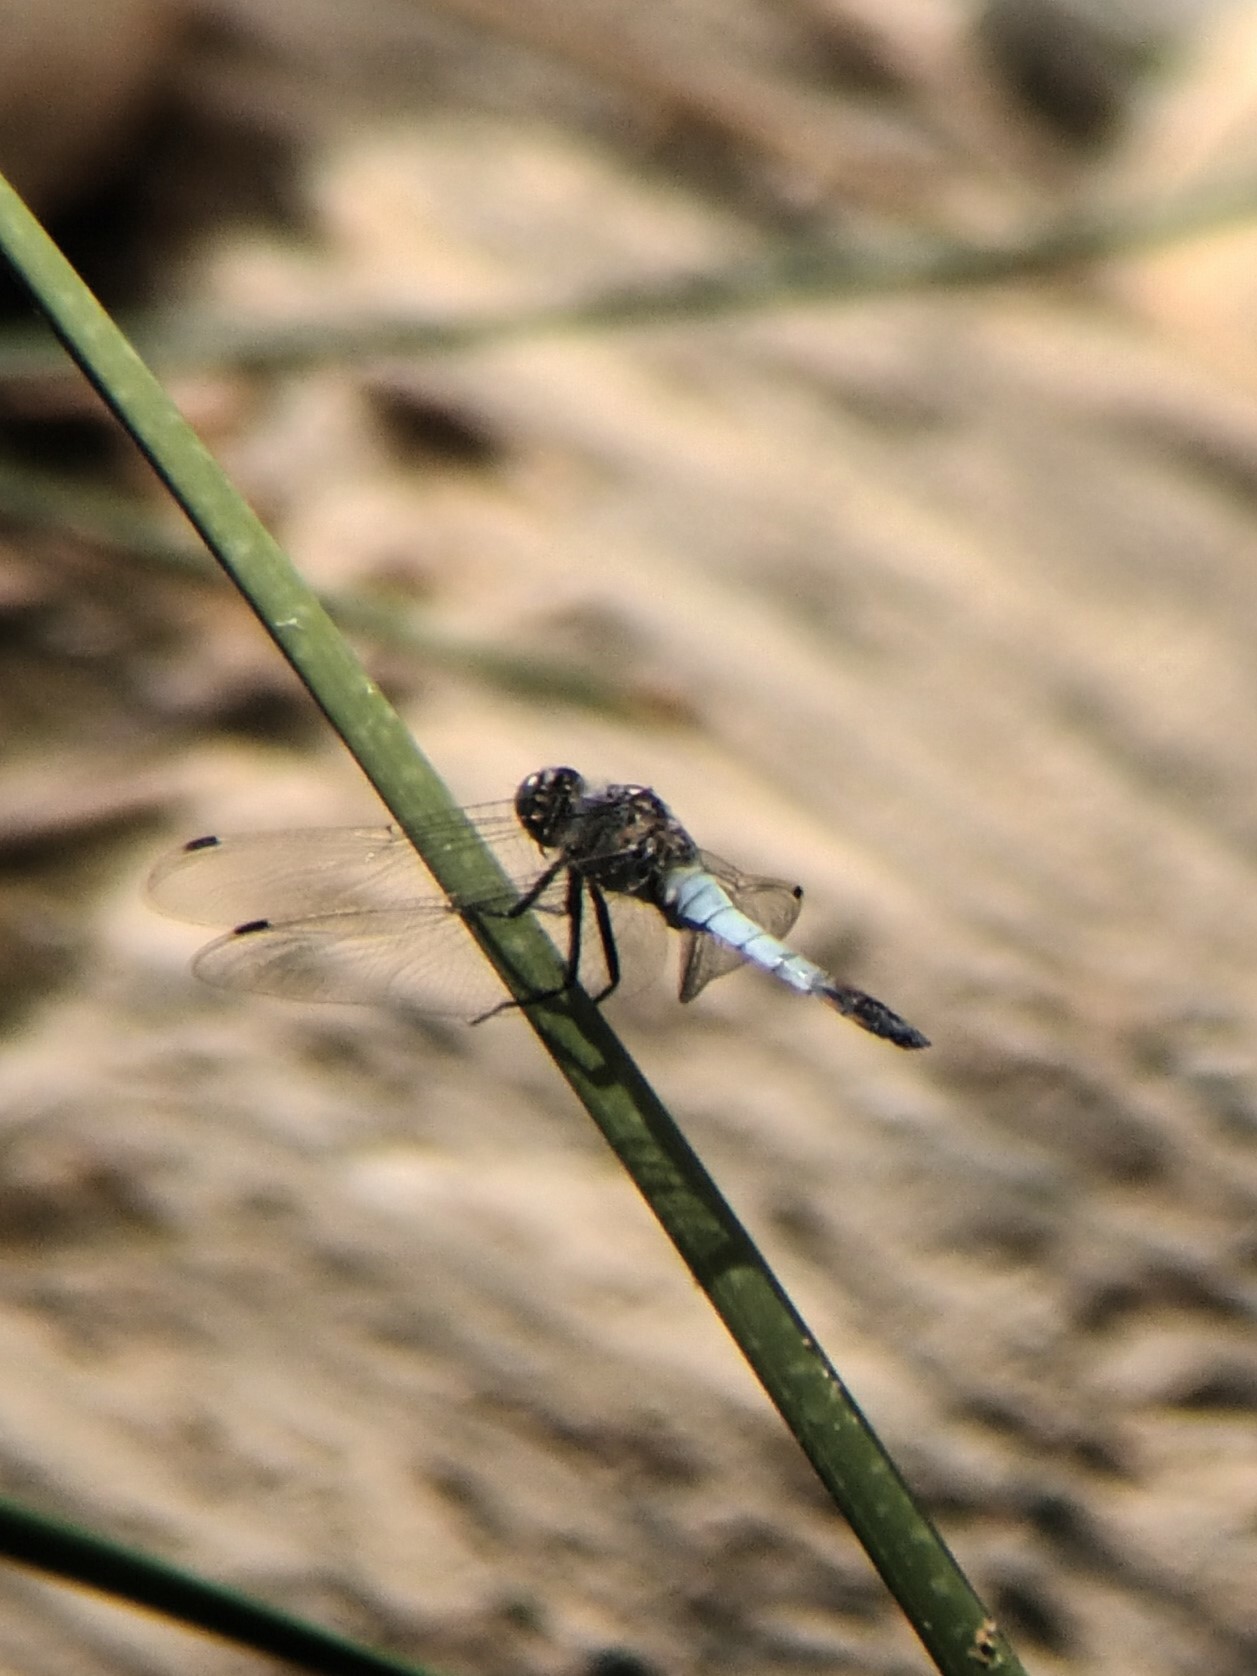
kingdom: Animalia
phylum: Arthropoda
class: Insecta
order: Odonata
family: Libellulidae
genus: Orthetrum
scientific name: Orthetrum cancellatum
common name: Black-tailed skimmer
